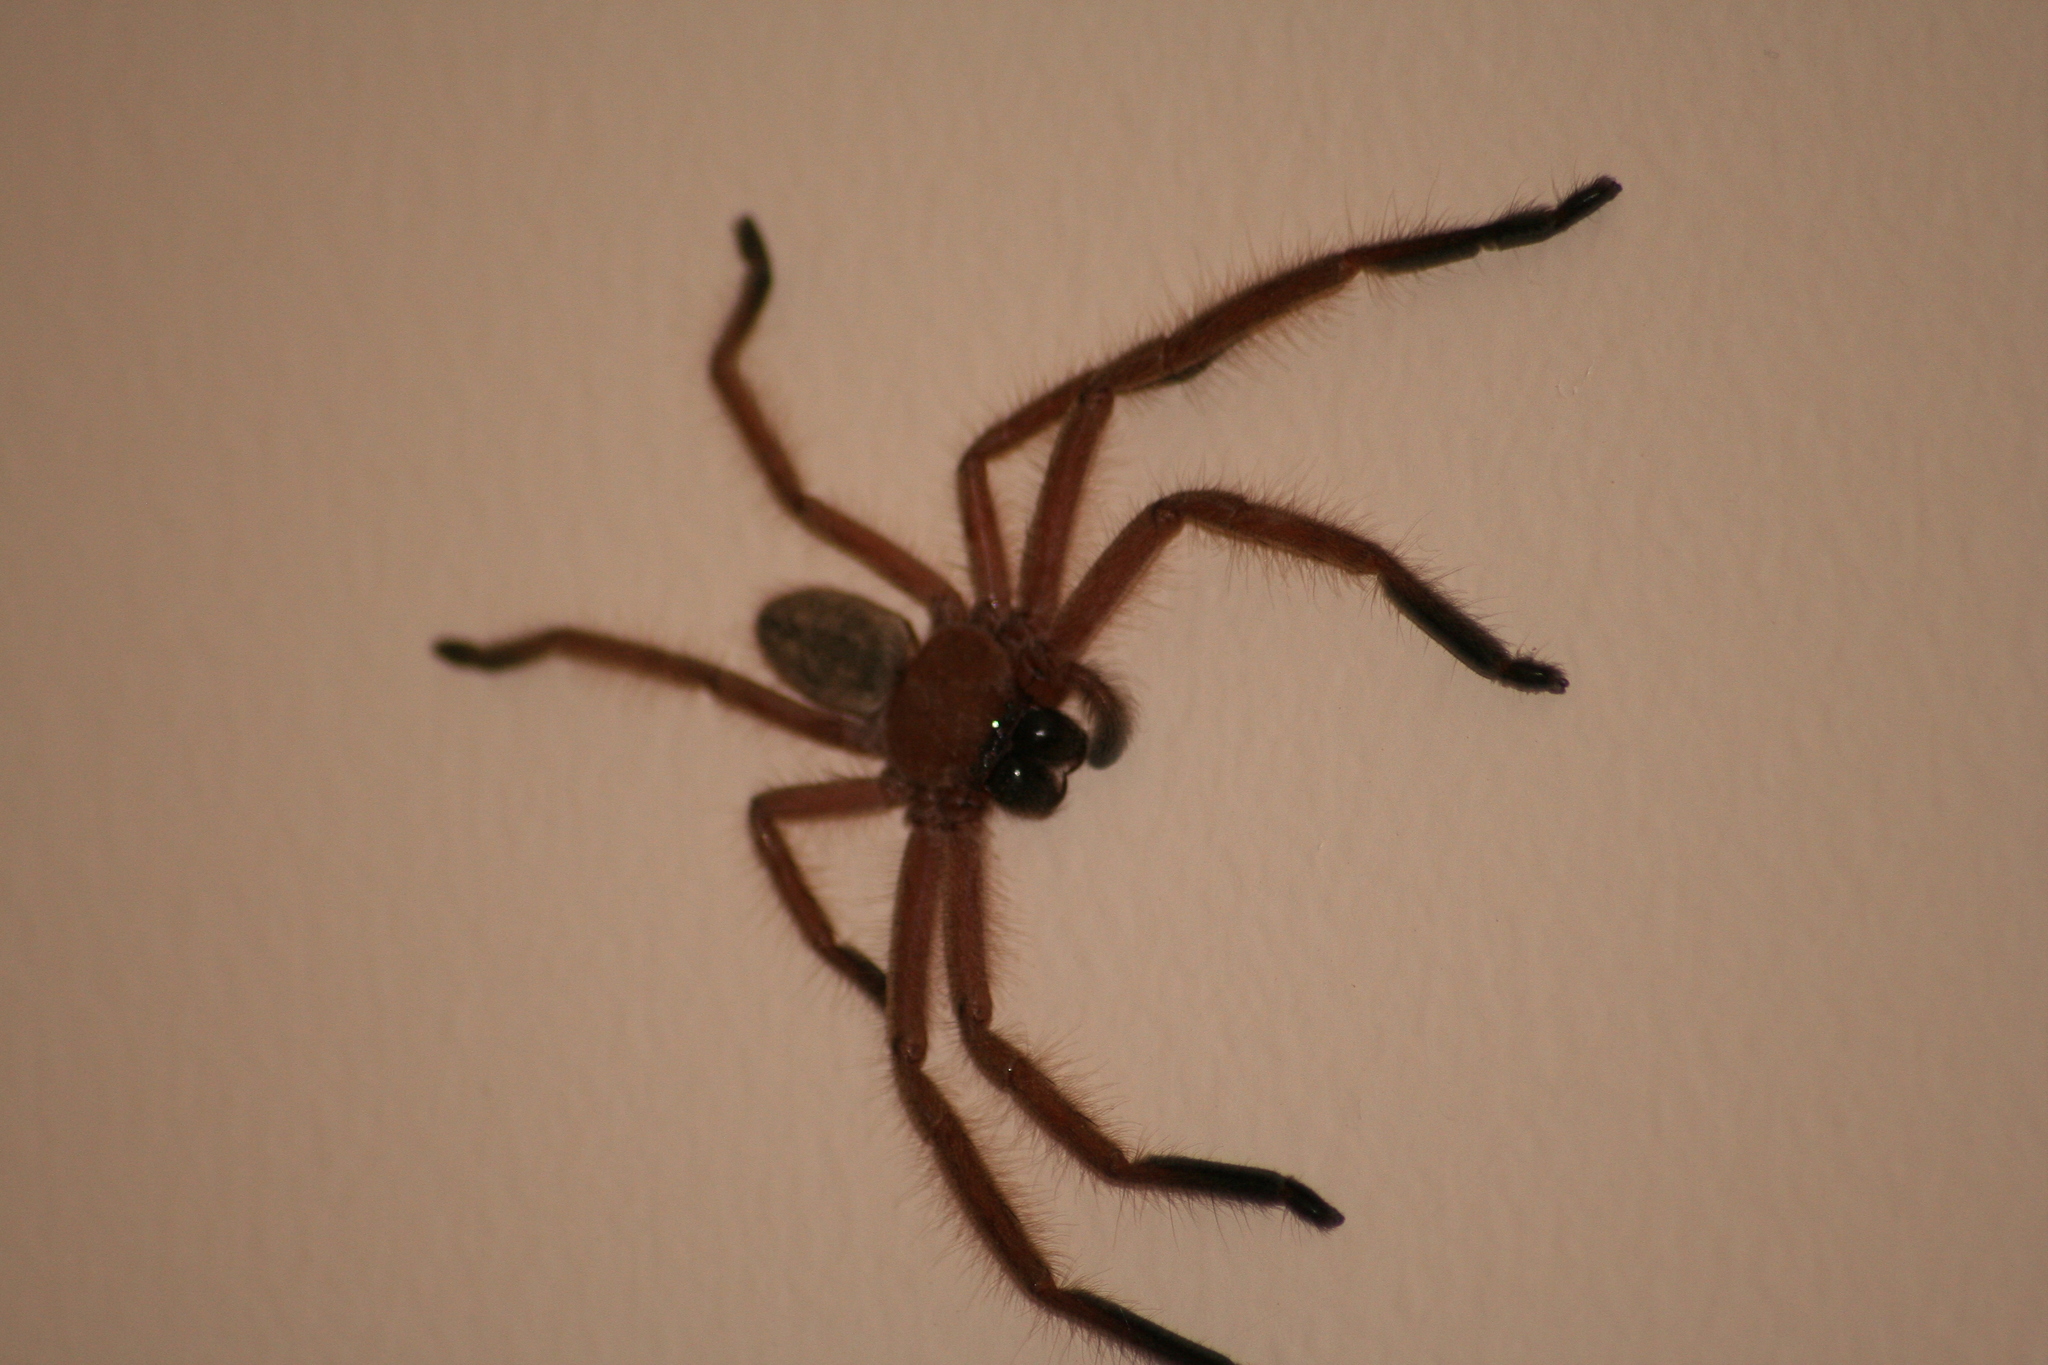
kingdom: Animalia
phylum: Arthropoda
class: Arachnida
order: Araneae
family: Sparassidae
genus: Delena
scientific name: Delena cancerides
